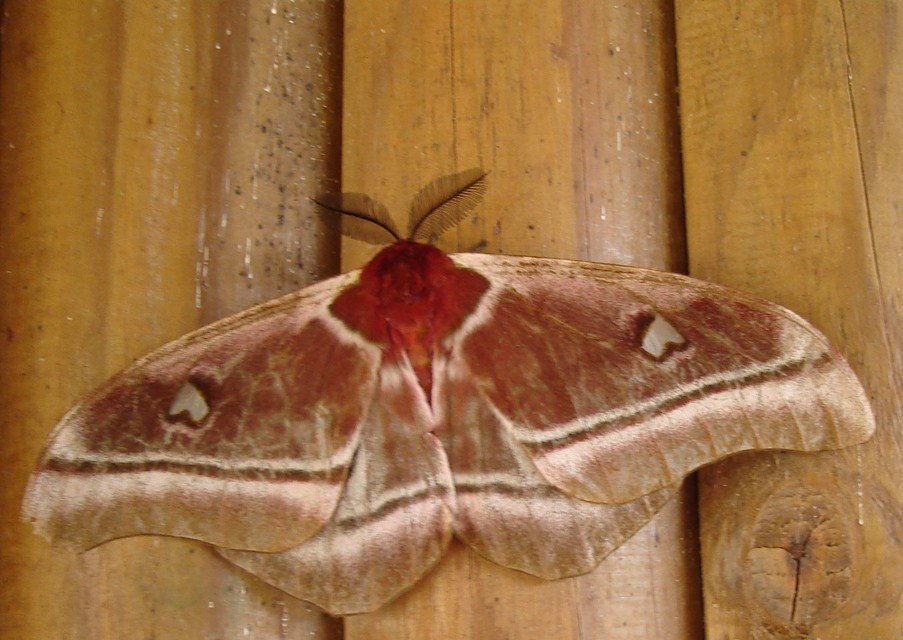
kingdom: Animalia
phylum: Arthropoda
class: Insecta
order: Lepidoptera
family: Saturniidae
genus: Bunaea
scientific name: Bunaea alcinoe
